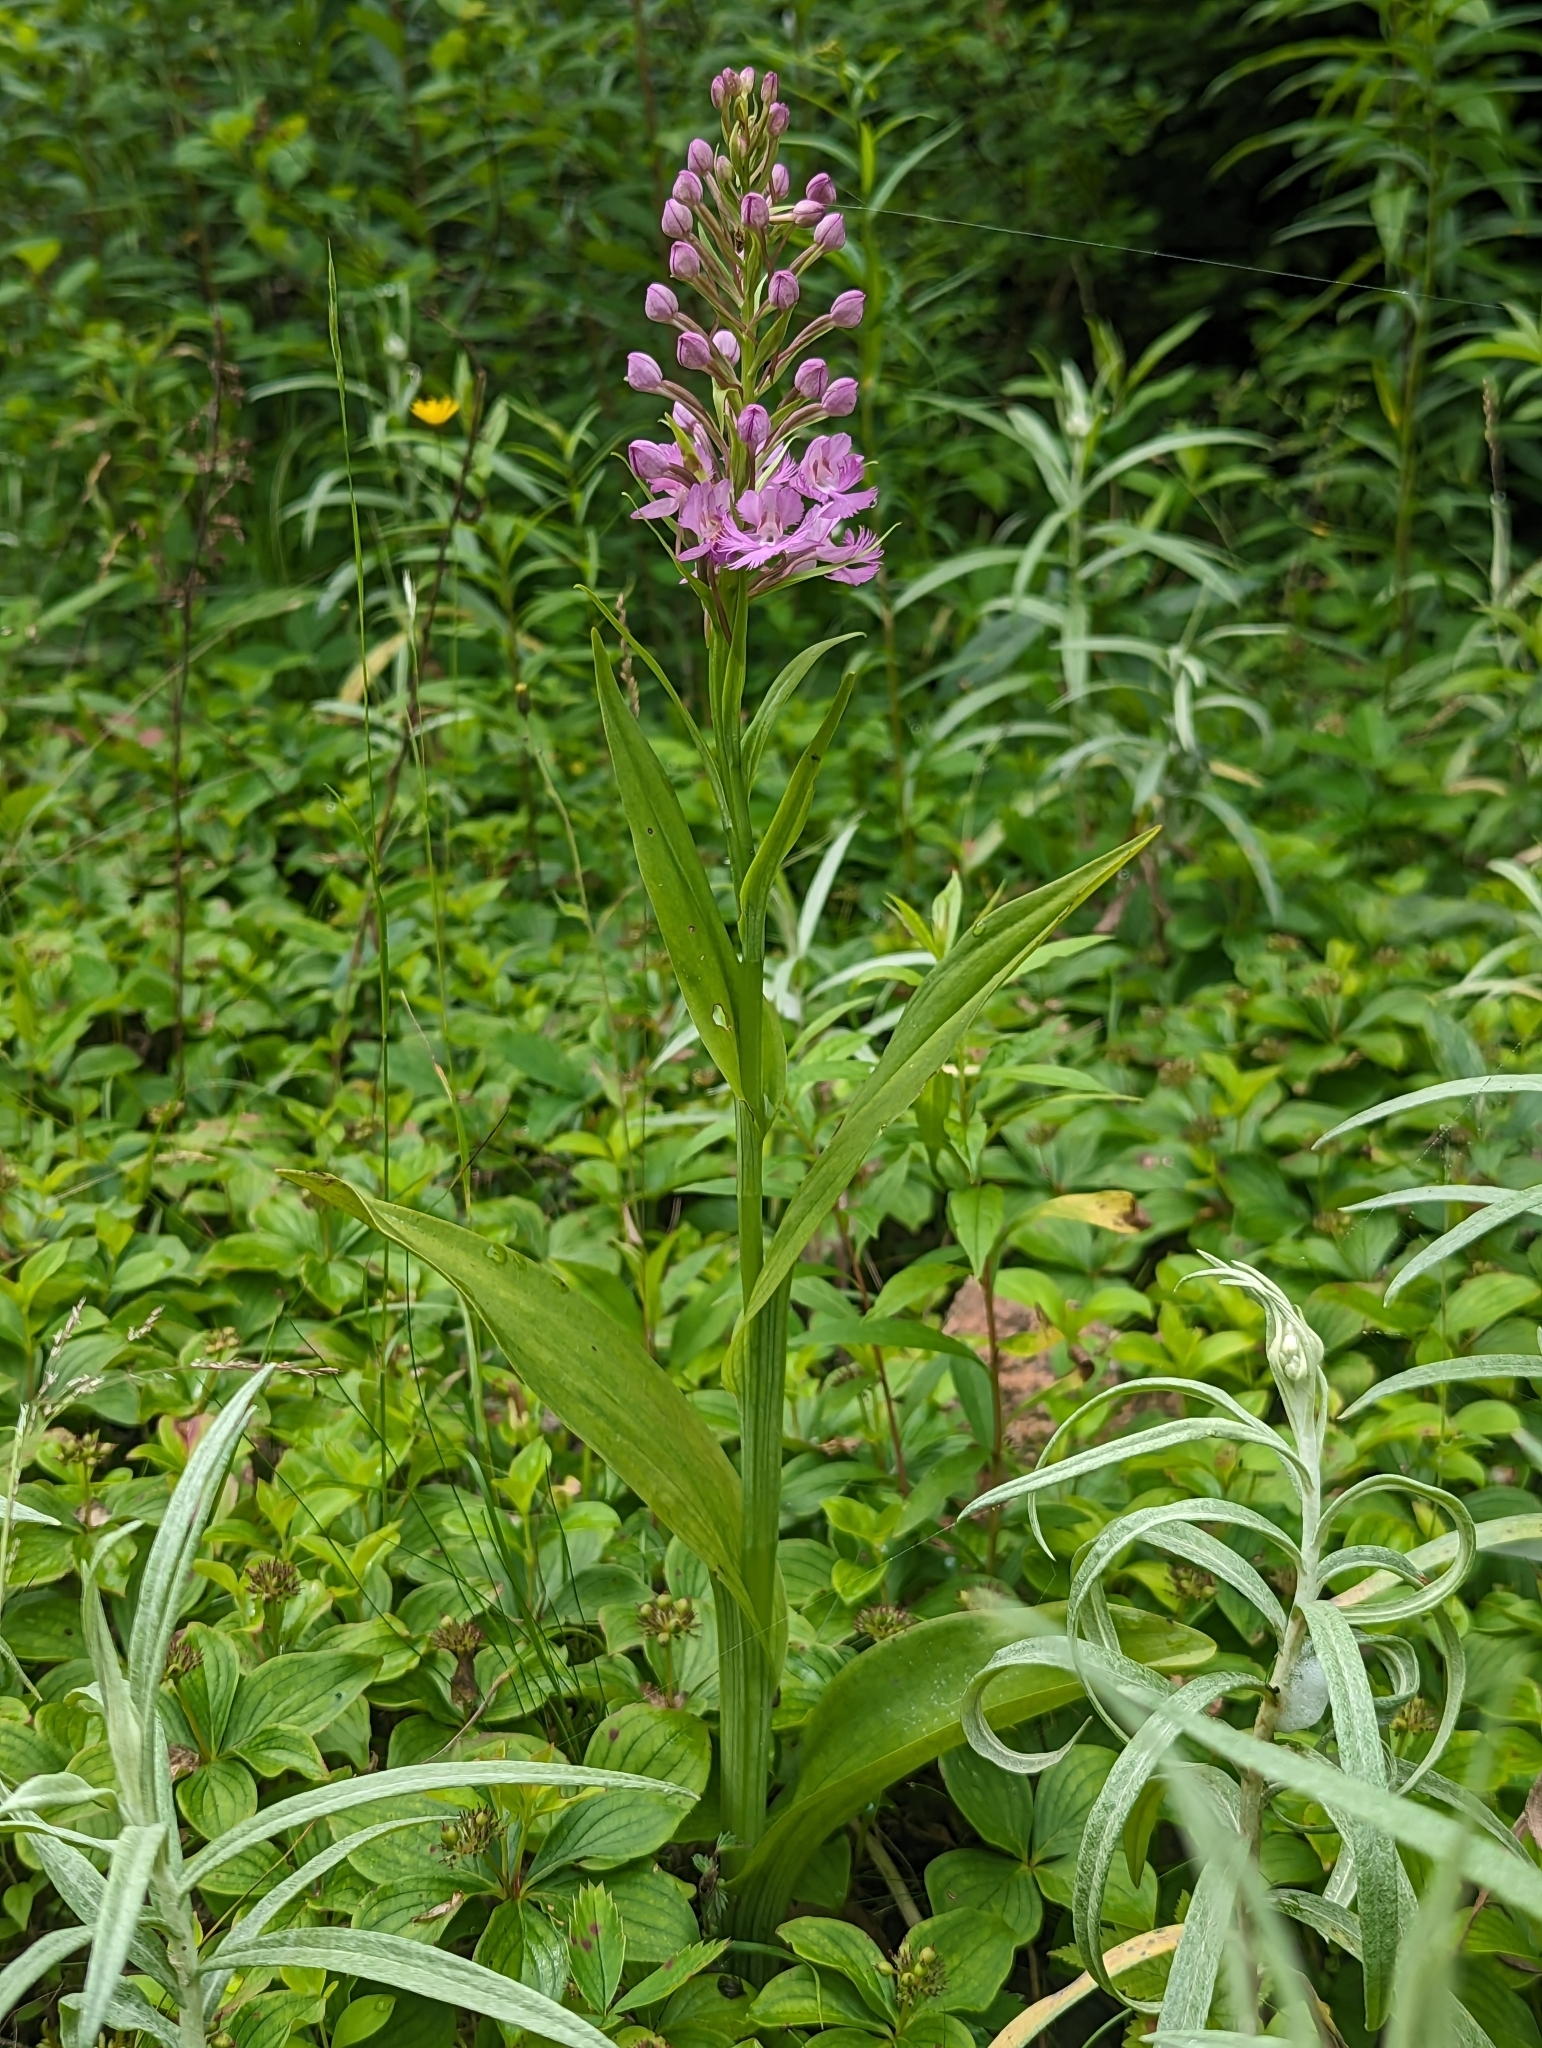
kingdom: Plantae
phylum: Tracheophyta
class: Liliopsida
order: Asparagales
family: Orchidaceae
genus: Platanthera
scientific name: Platanthera grandiflora
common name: Greater purple fringed orchid
